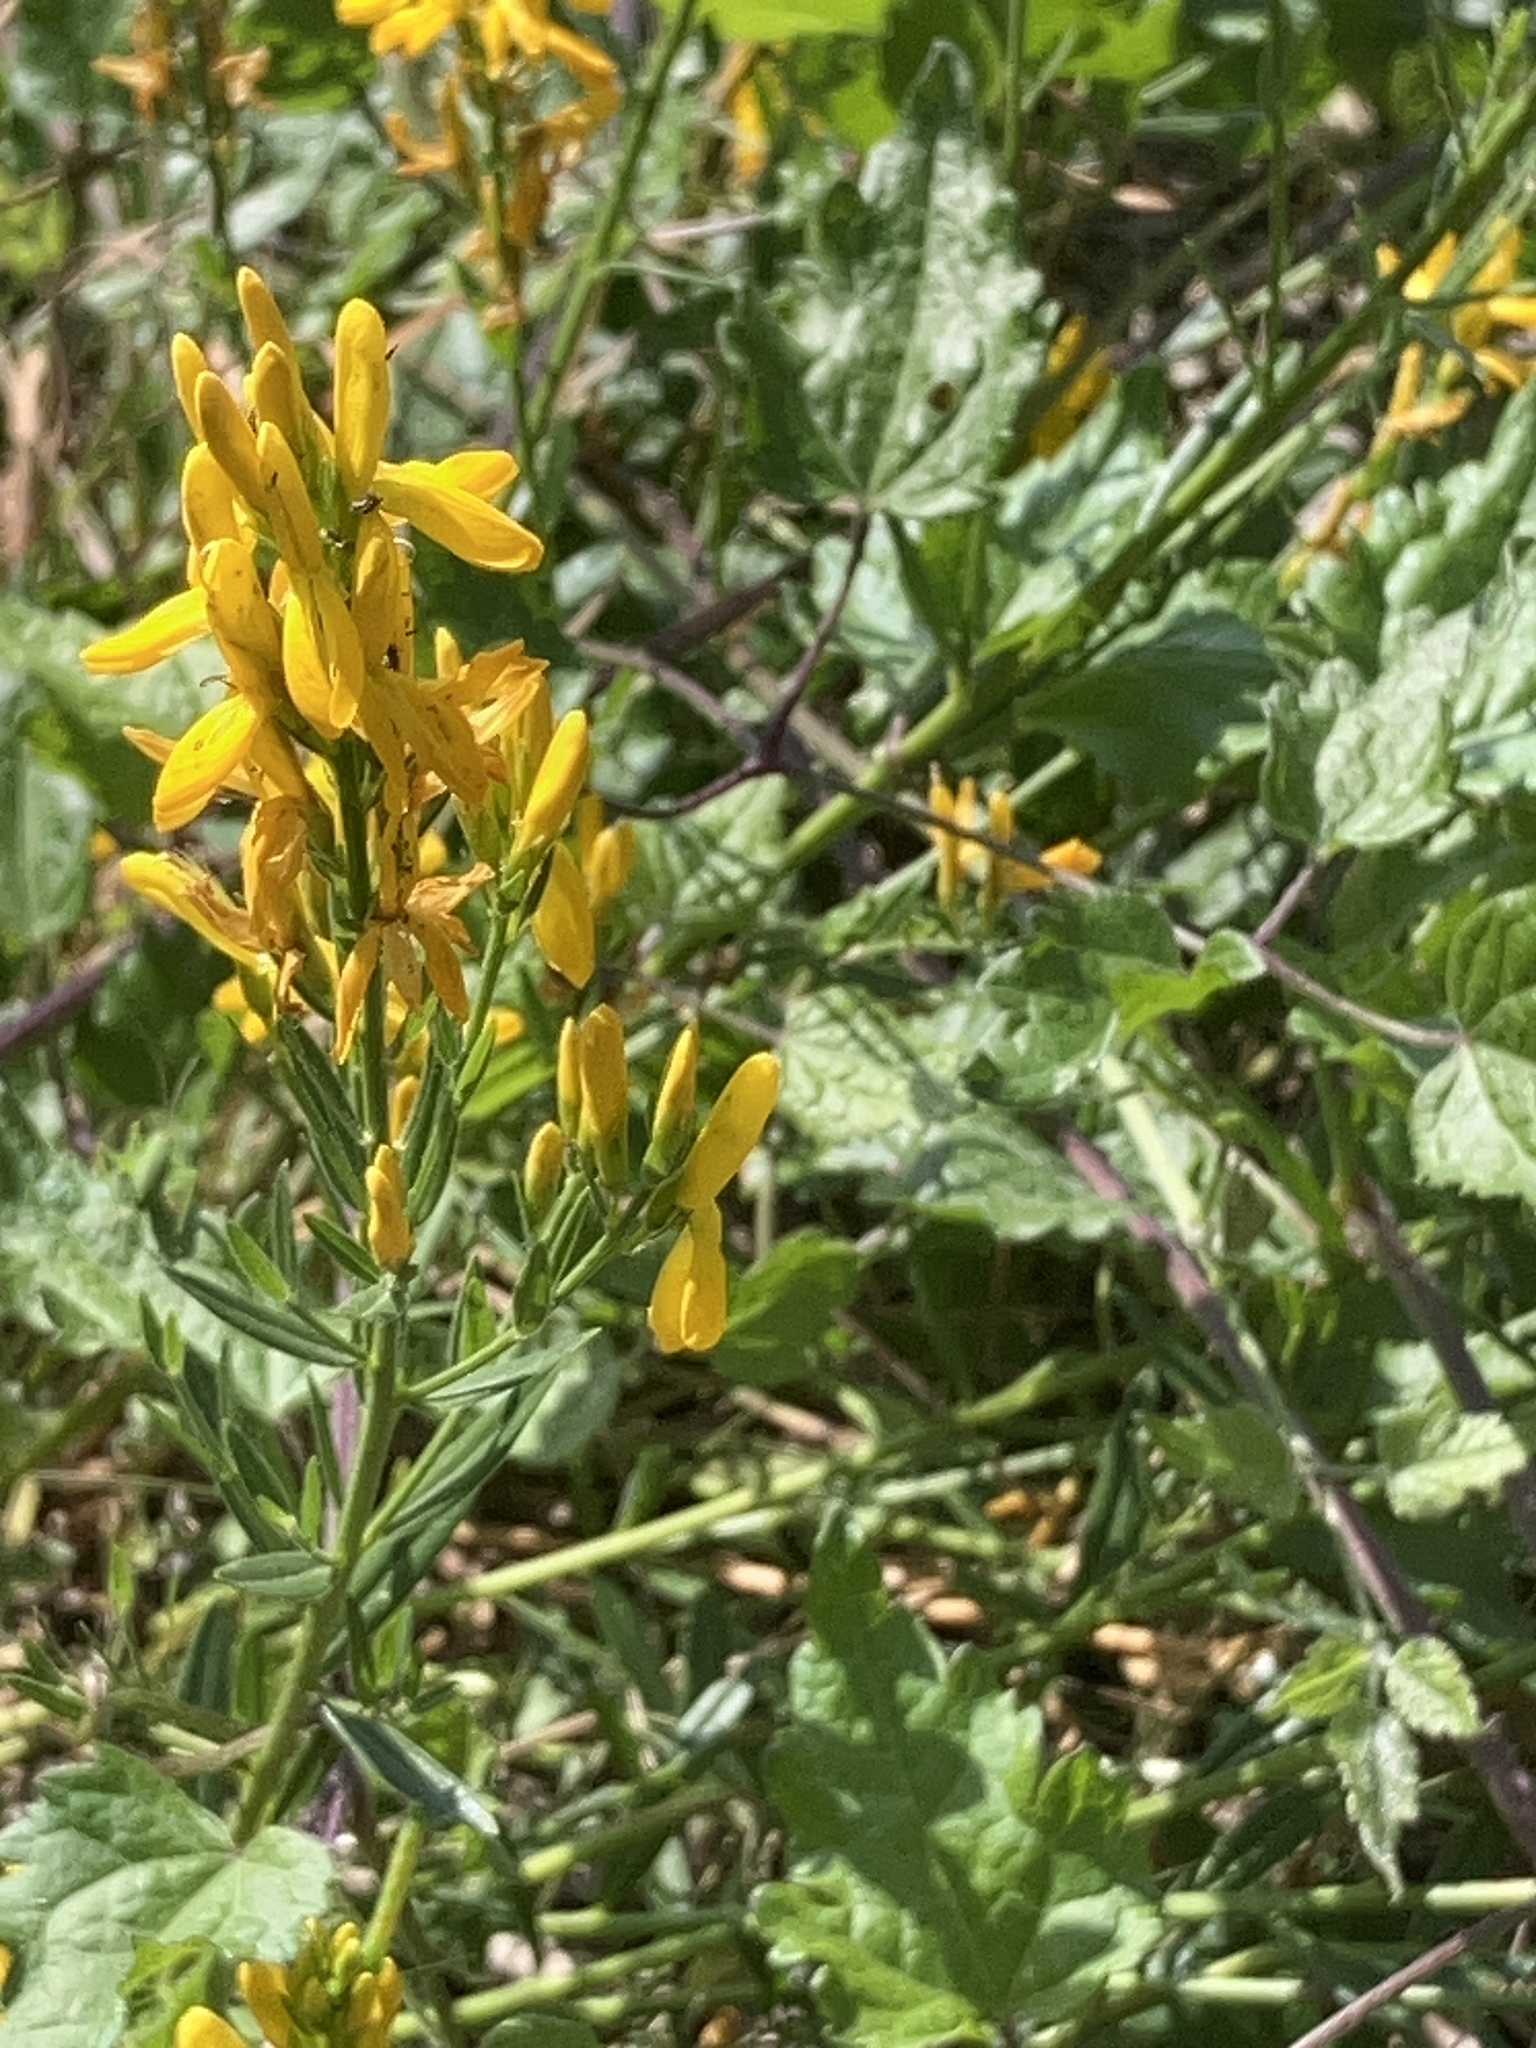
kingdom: Plantae
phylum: Tracheophyta
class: Magnoliopsida
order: Fabales
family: Fabaceae
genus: Genista
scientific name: Genista tinctoria
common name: Dyer's greenweed
